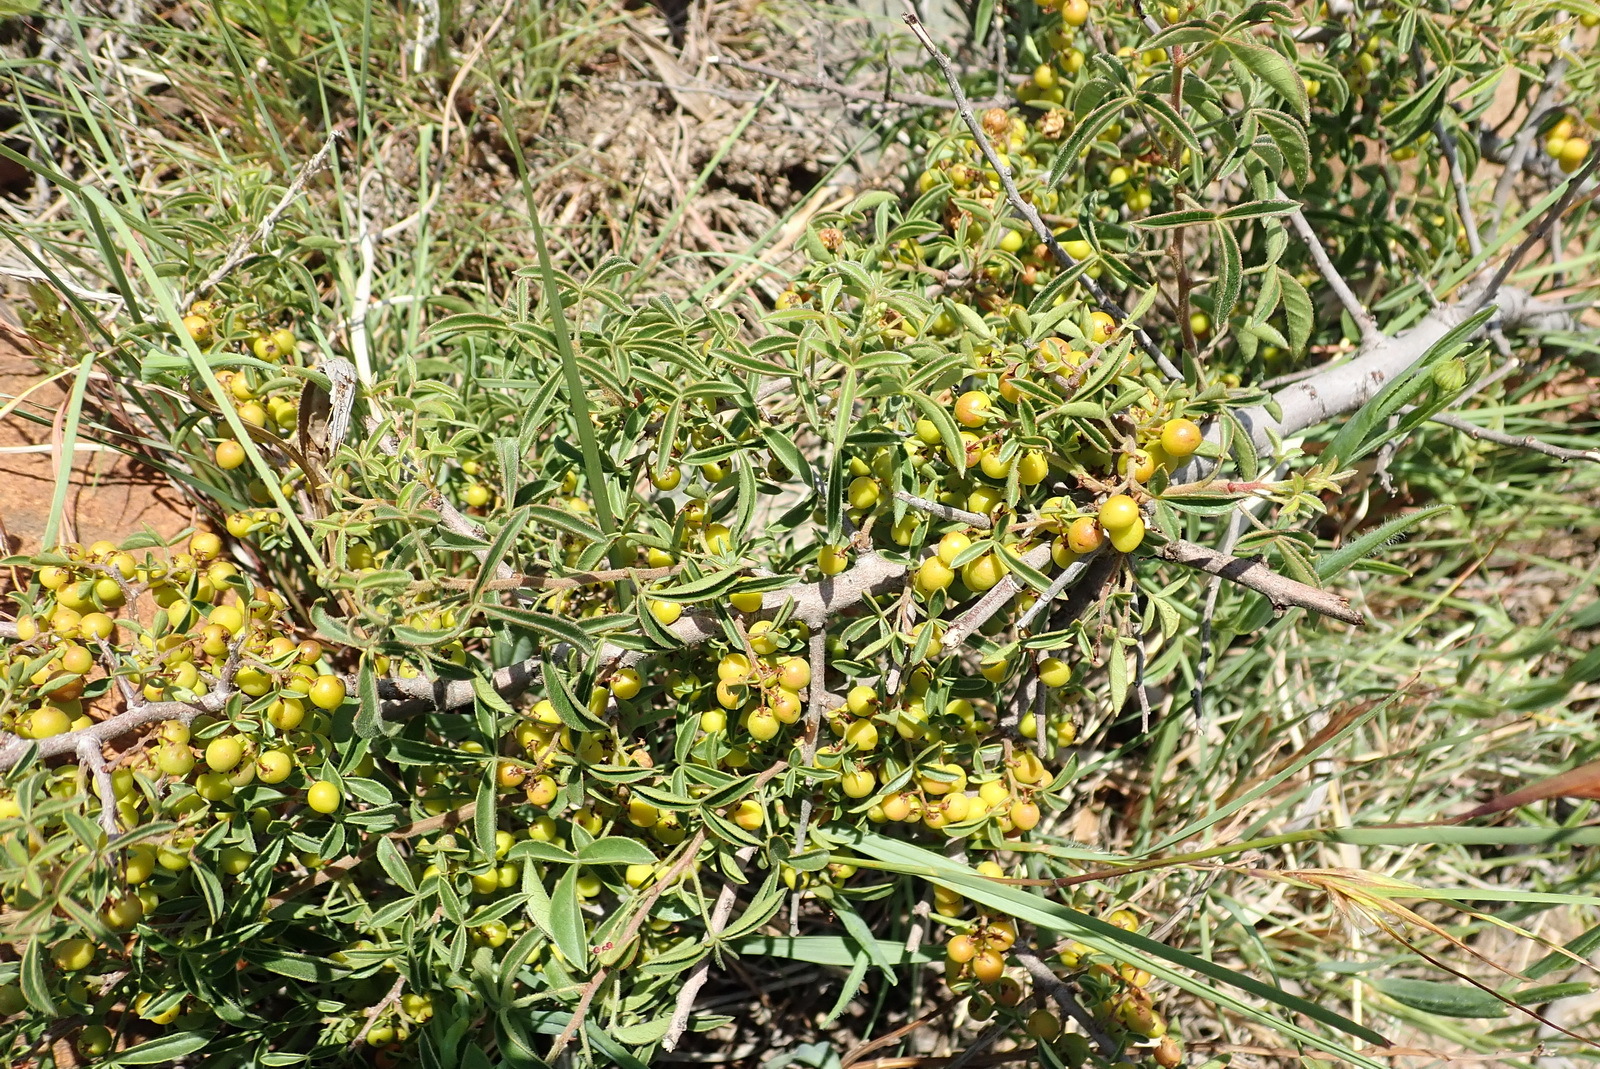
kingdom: Plantae
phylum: Tracheophyta
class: Magnoliopsida
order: Sapindales
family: Anacardiaceae
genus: Searsia
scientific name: Searsia rigida
